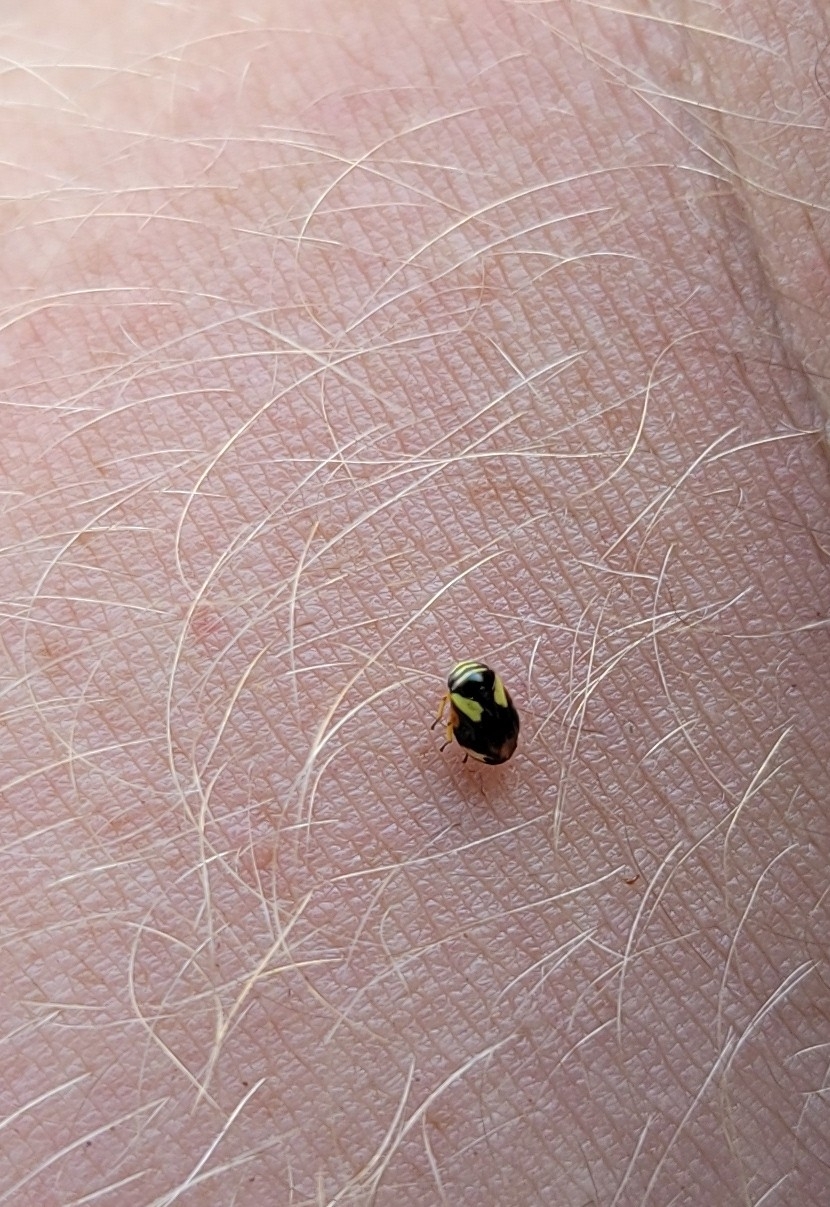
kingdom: Animalia
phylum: Arthropoda
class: Insecta
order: Hemiptera
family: Clastopteridae
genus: Clastoptera
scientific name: Clastoptera proteus
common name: Dogwood spittlebug
